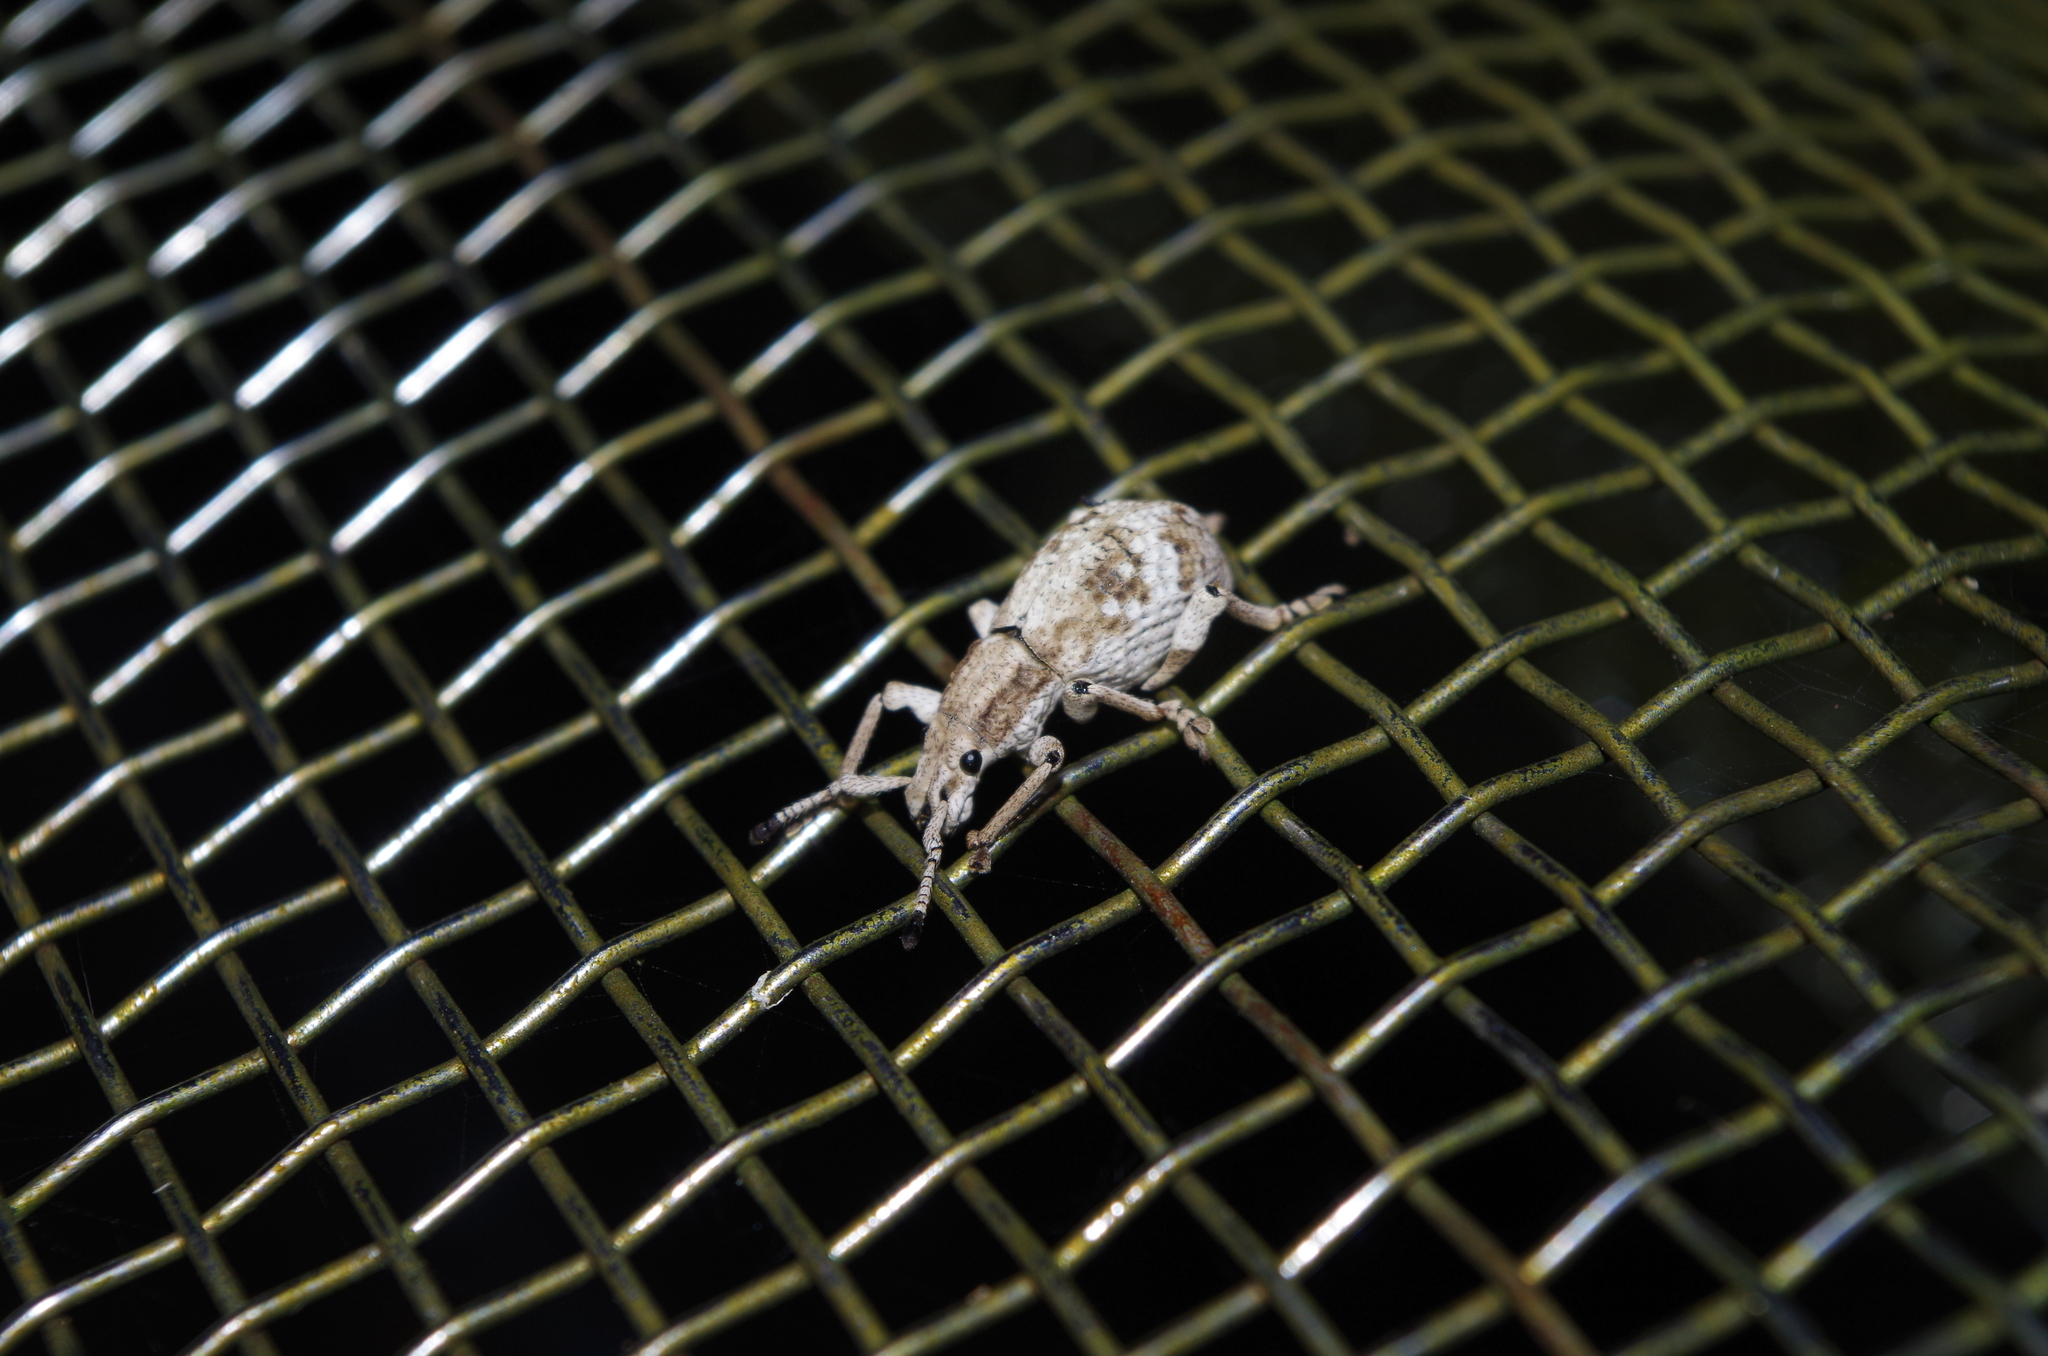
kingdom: Animalia
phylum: Arthropoda
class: Insecta
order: Coleoptera
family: Curculionidae
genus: Episomus
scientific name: Episomus mori
